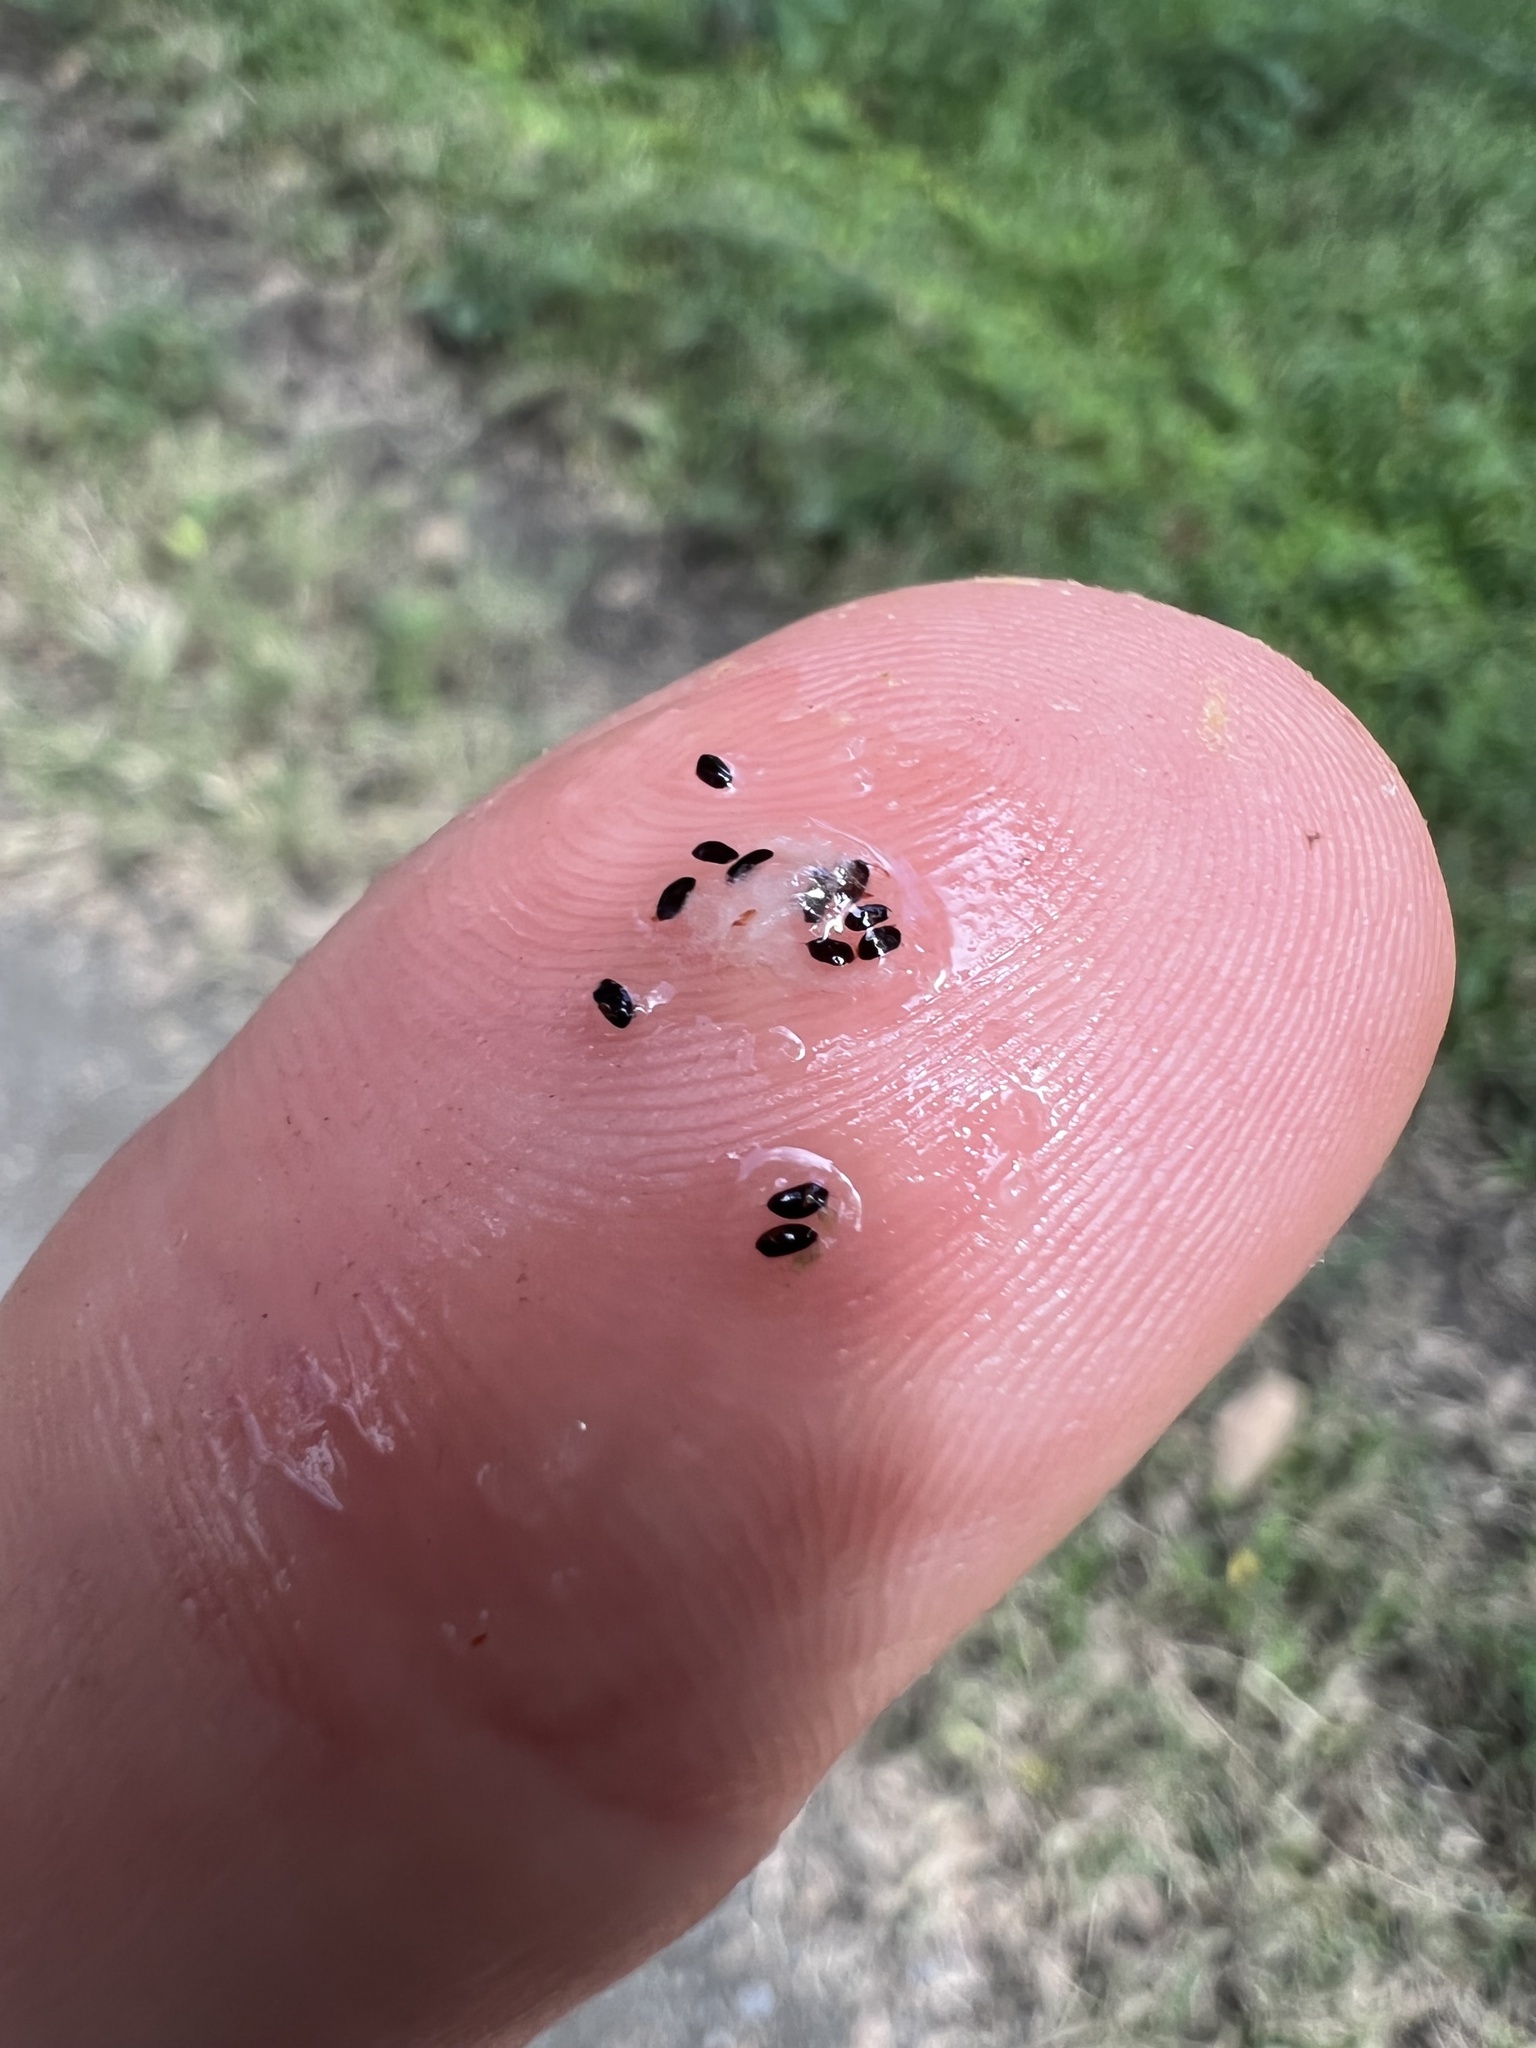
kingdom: Plantae
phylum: Tracheophyta
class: Magnoliopsida
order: Caryophyllales
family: Cactaceae
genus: Rhipsalis
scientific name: Rhipsalis baccifera
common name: Mistletoe cactus
